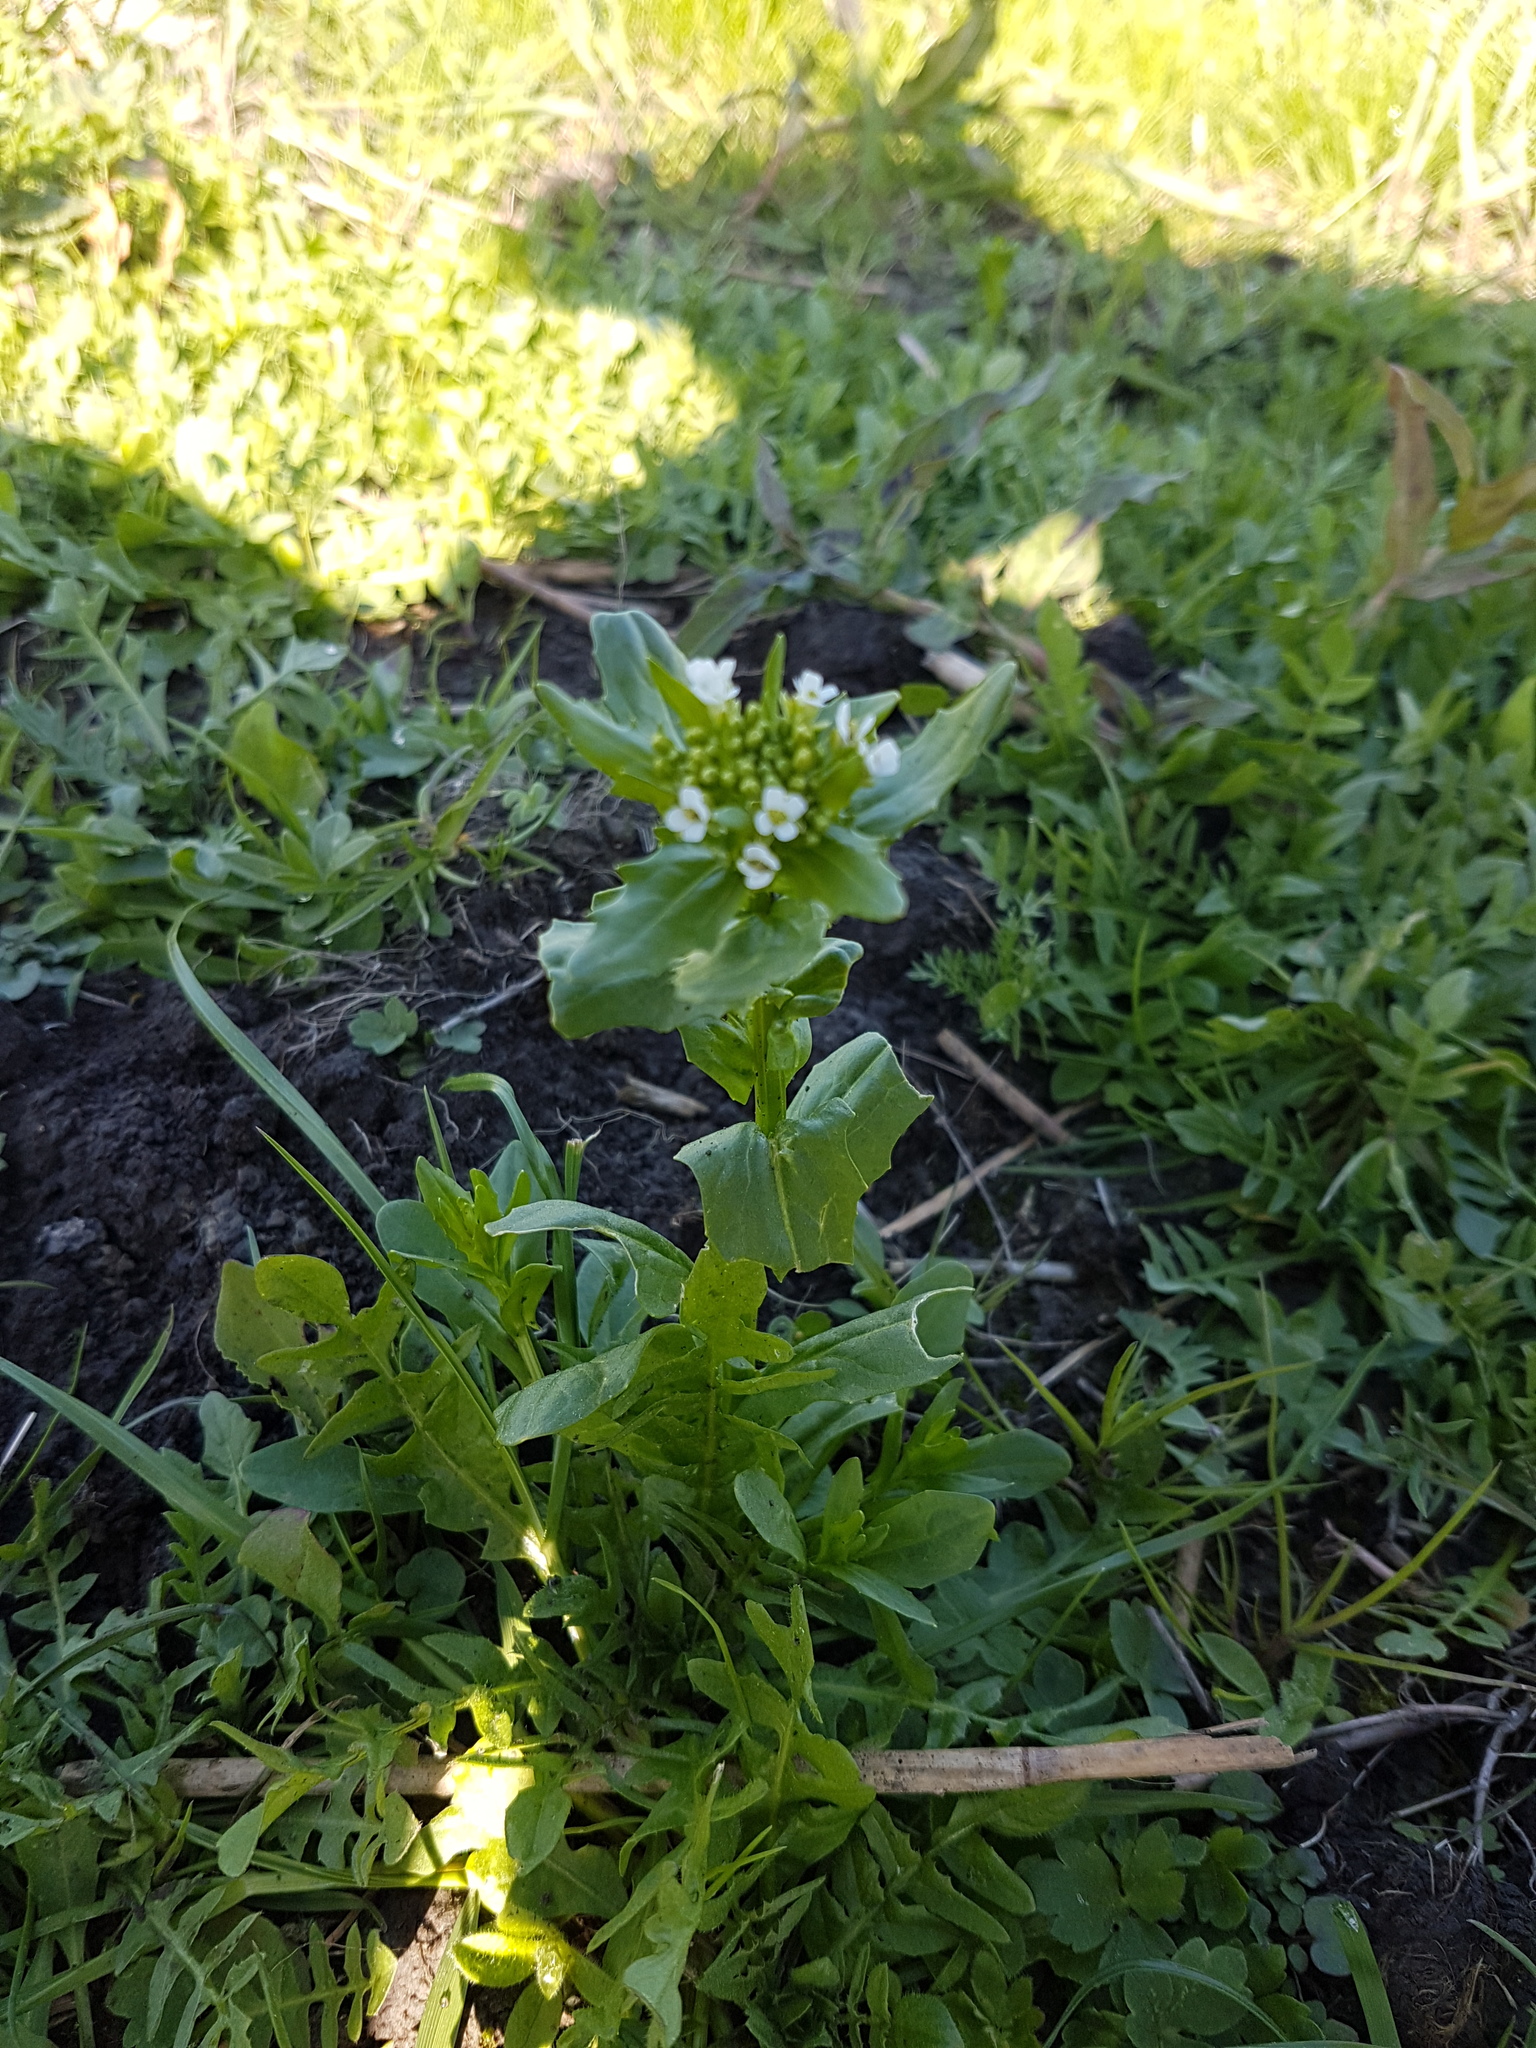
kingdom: Plantae
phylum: Tracheophyta
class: Magnoliopsida
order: Brassicales
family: Brassicaceae
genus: Thlaspi
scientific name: Thlaspi arvense
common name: Field pennycress
